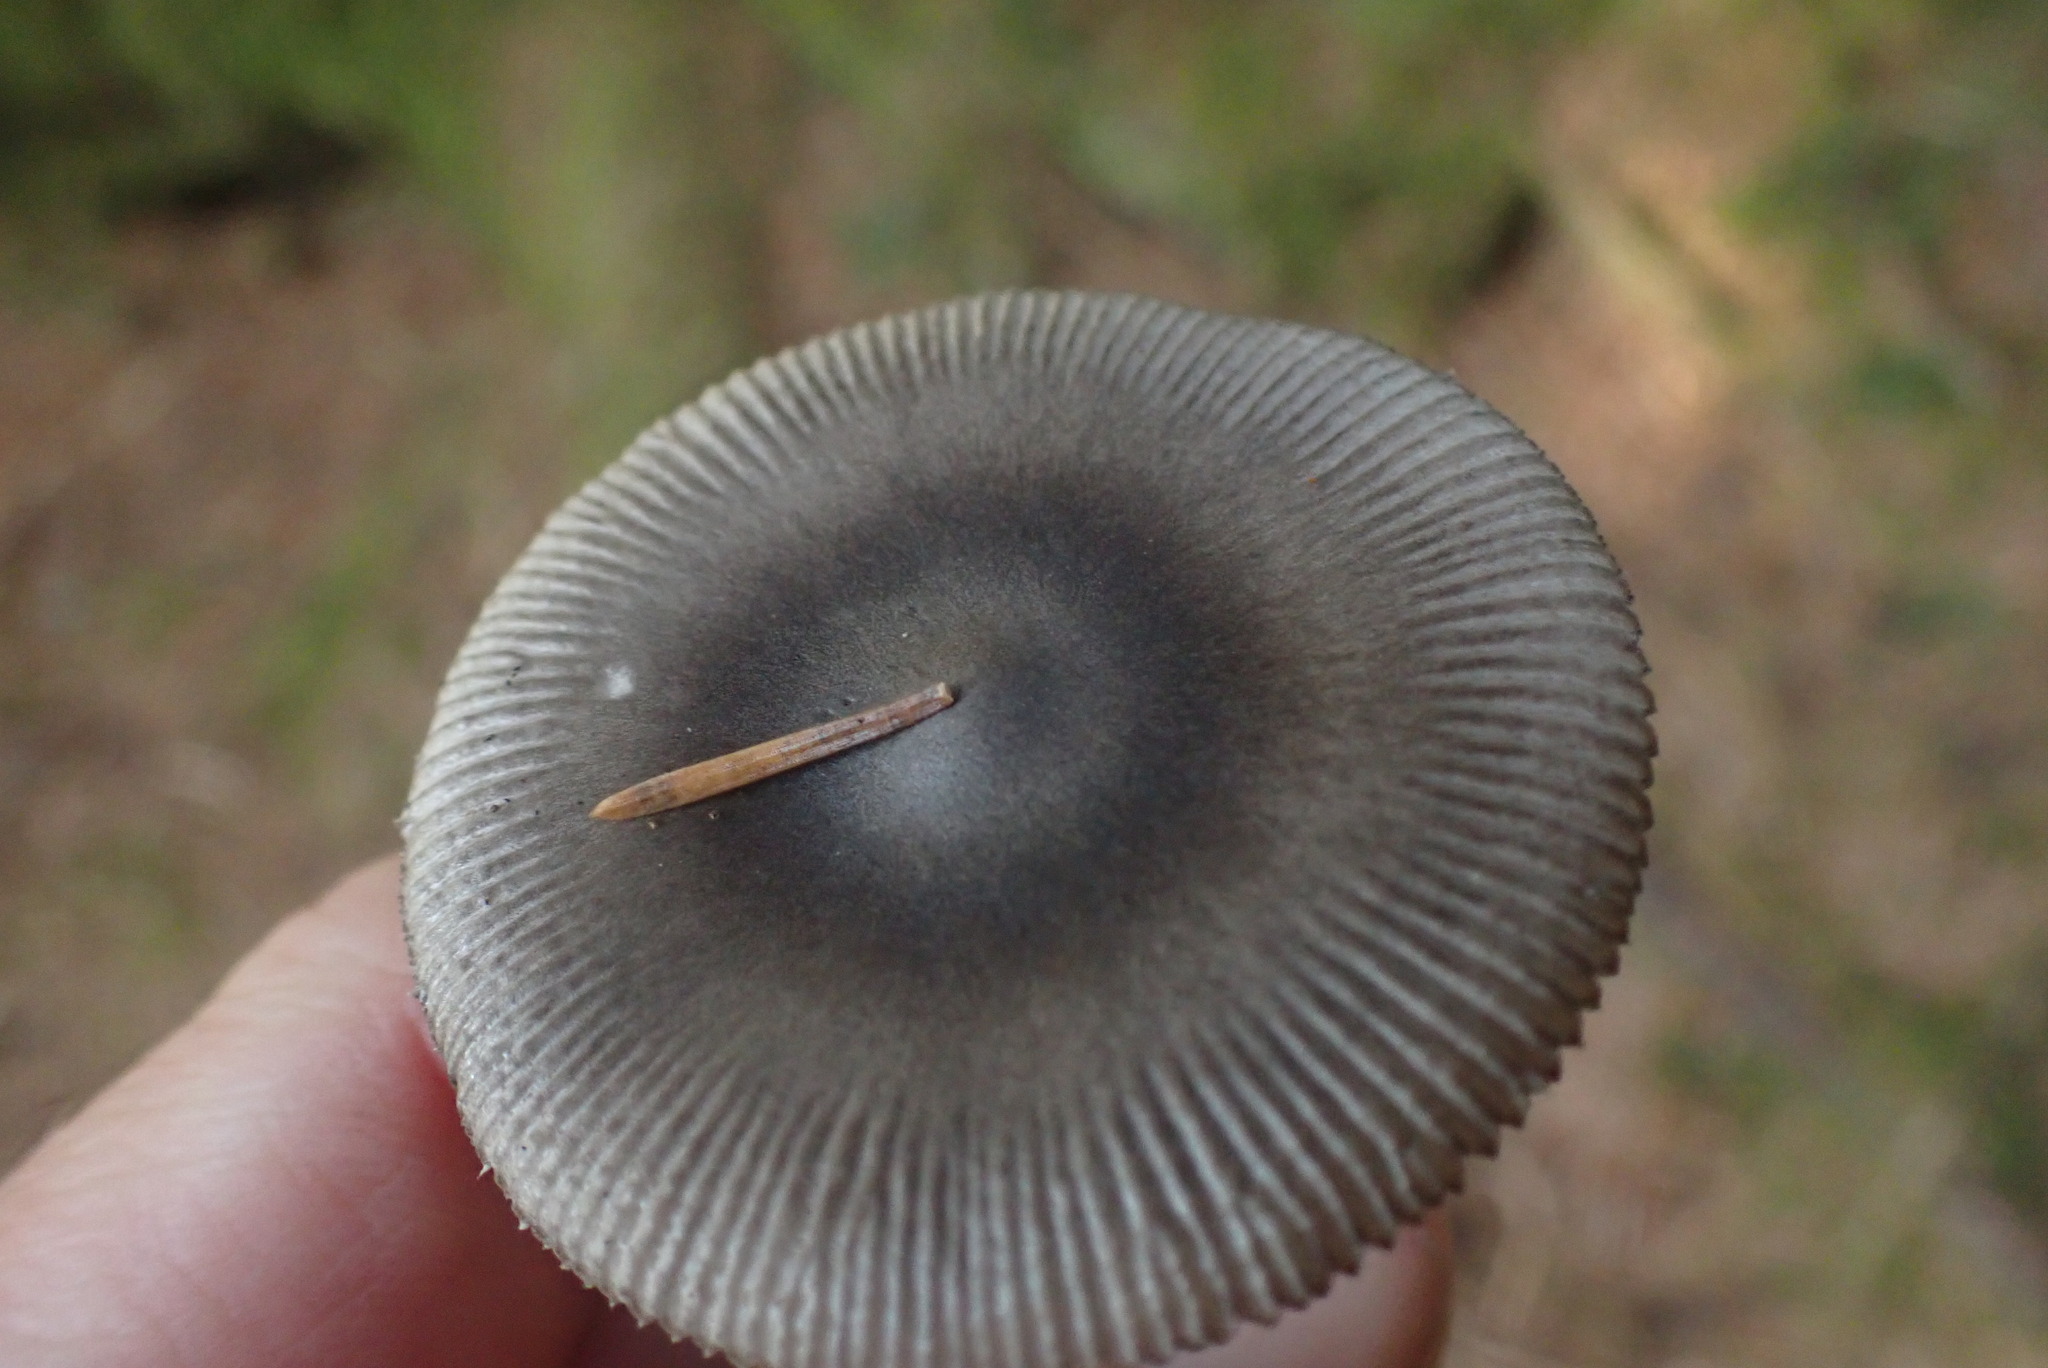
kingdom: Fungi
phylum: Basidiomycota
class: Agaricomycetes
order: Agaricales
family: Amanitaceae
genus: Amanita
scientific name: Amanita vaginata
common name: Grisette
